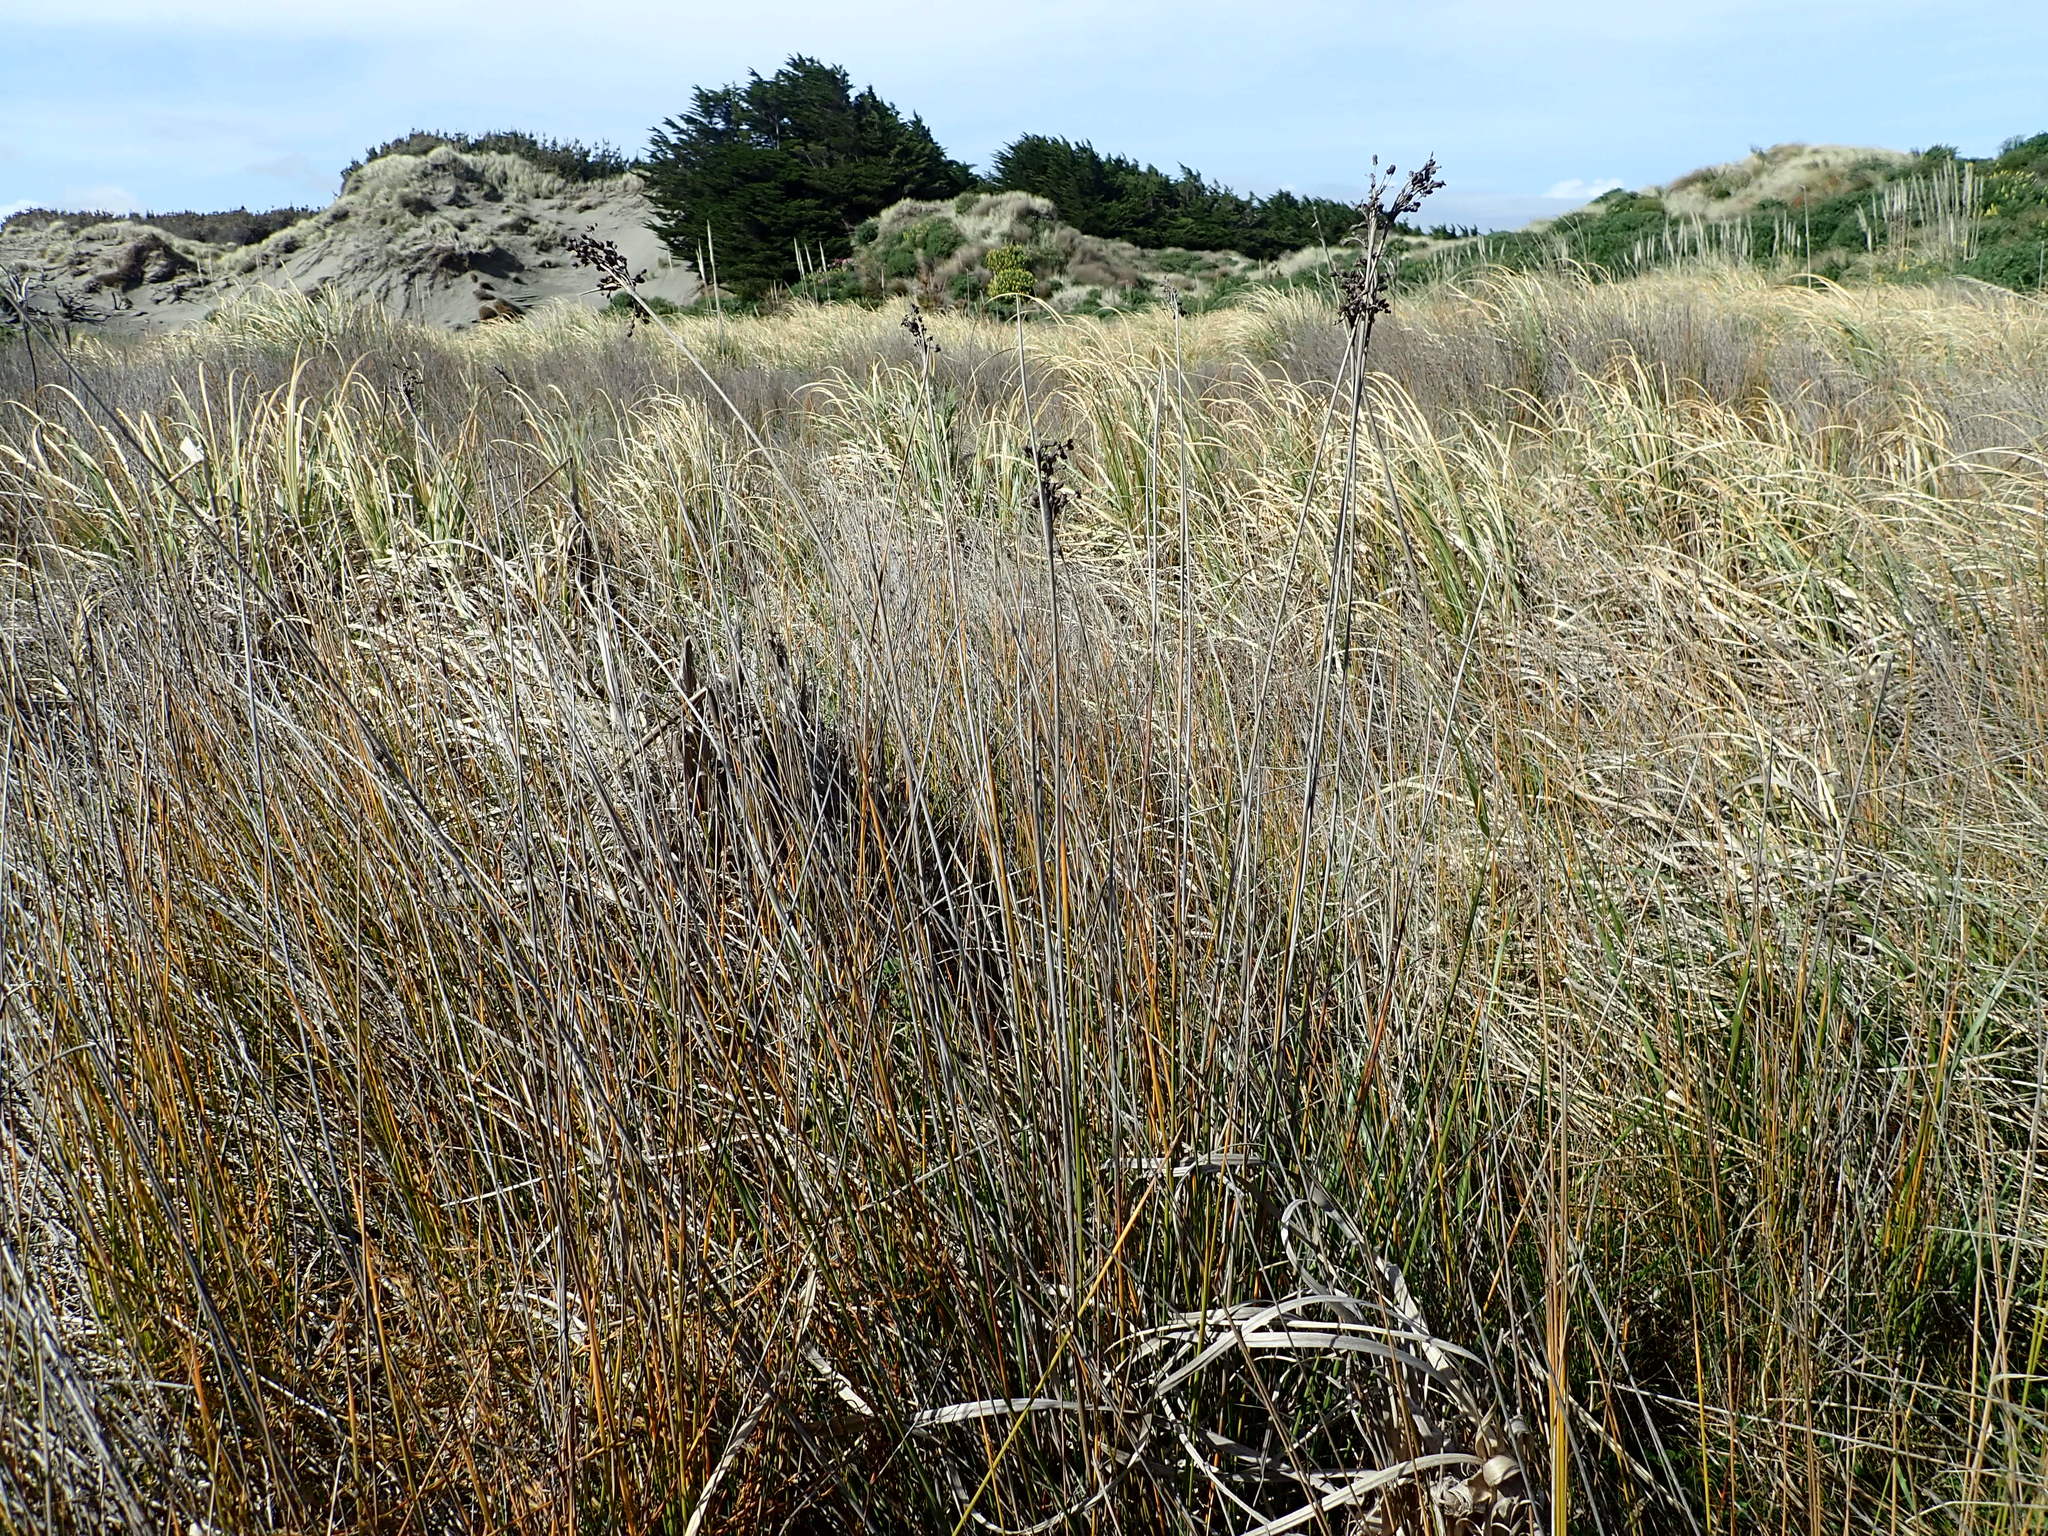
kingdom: Plantae
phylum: Tracheophyta
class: Liliopsida
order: Poales
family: Juncaceae
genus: Juncus
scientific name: Juncus acutus
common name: Sharp rush
